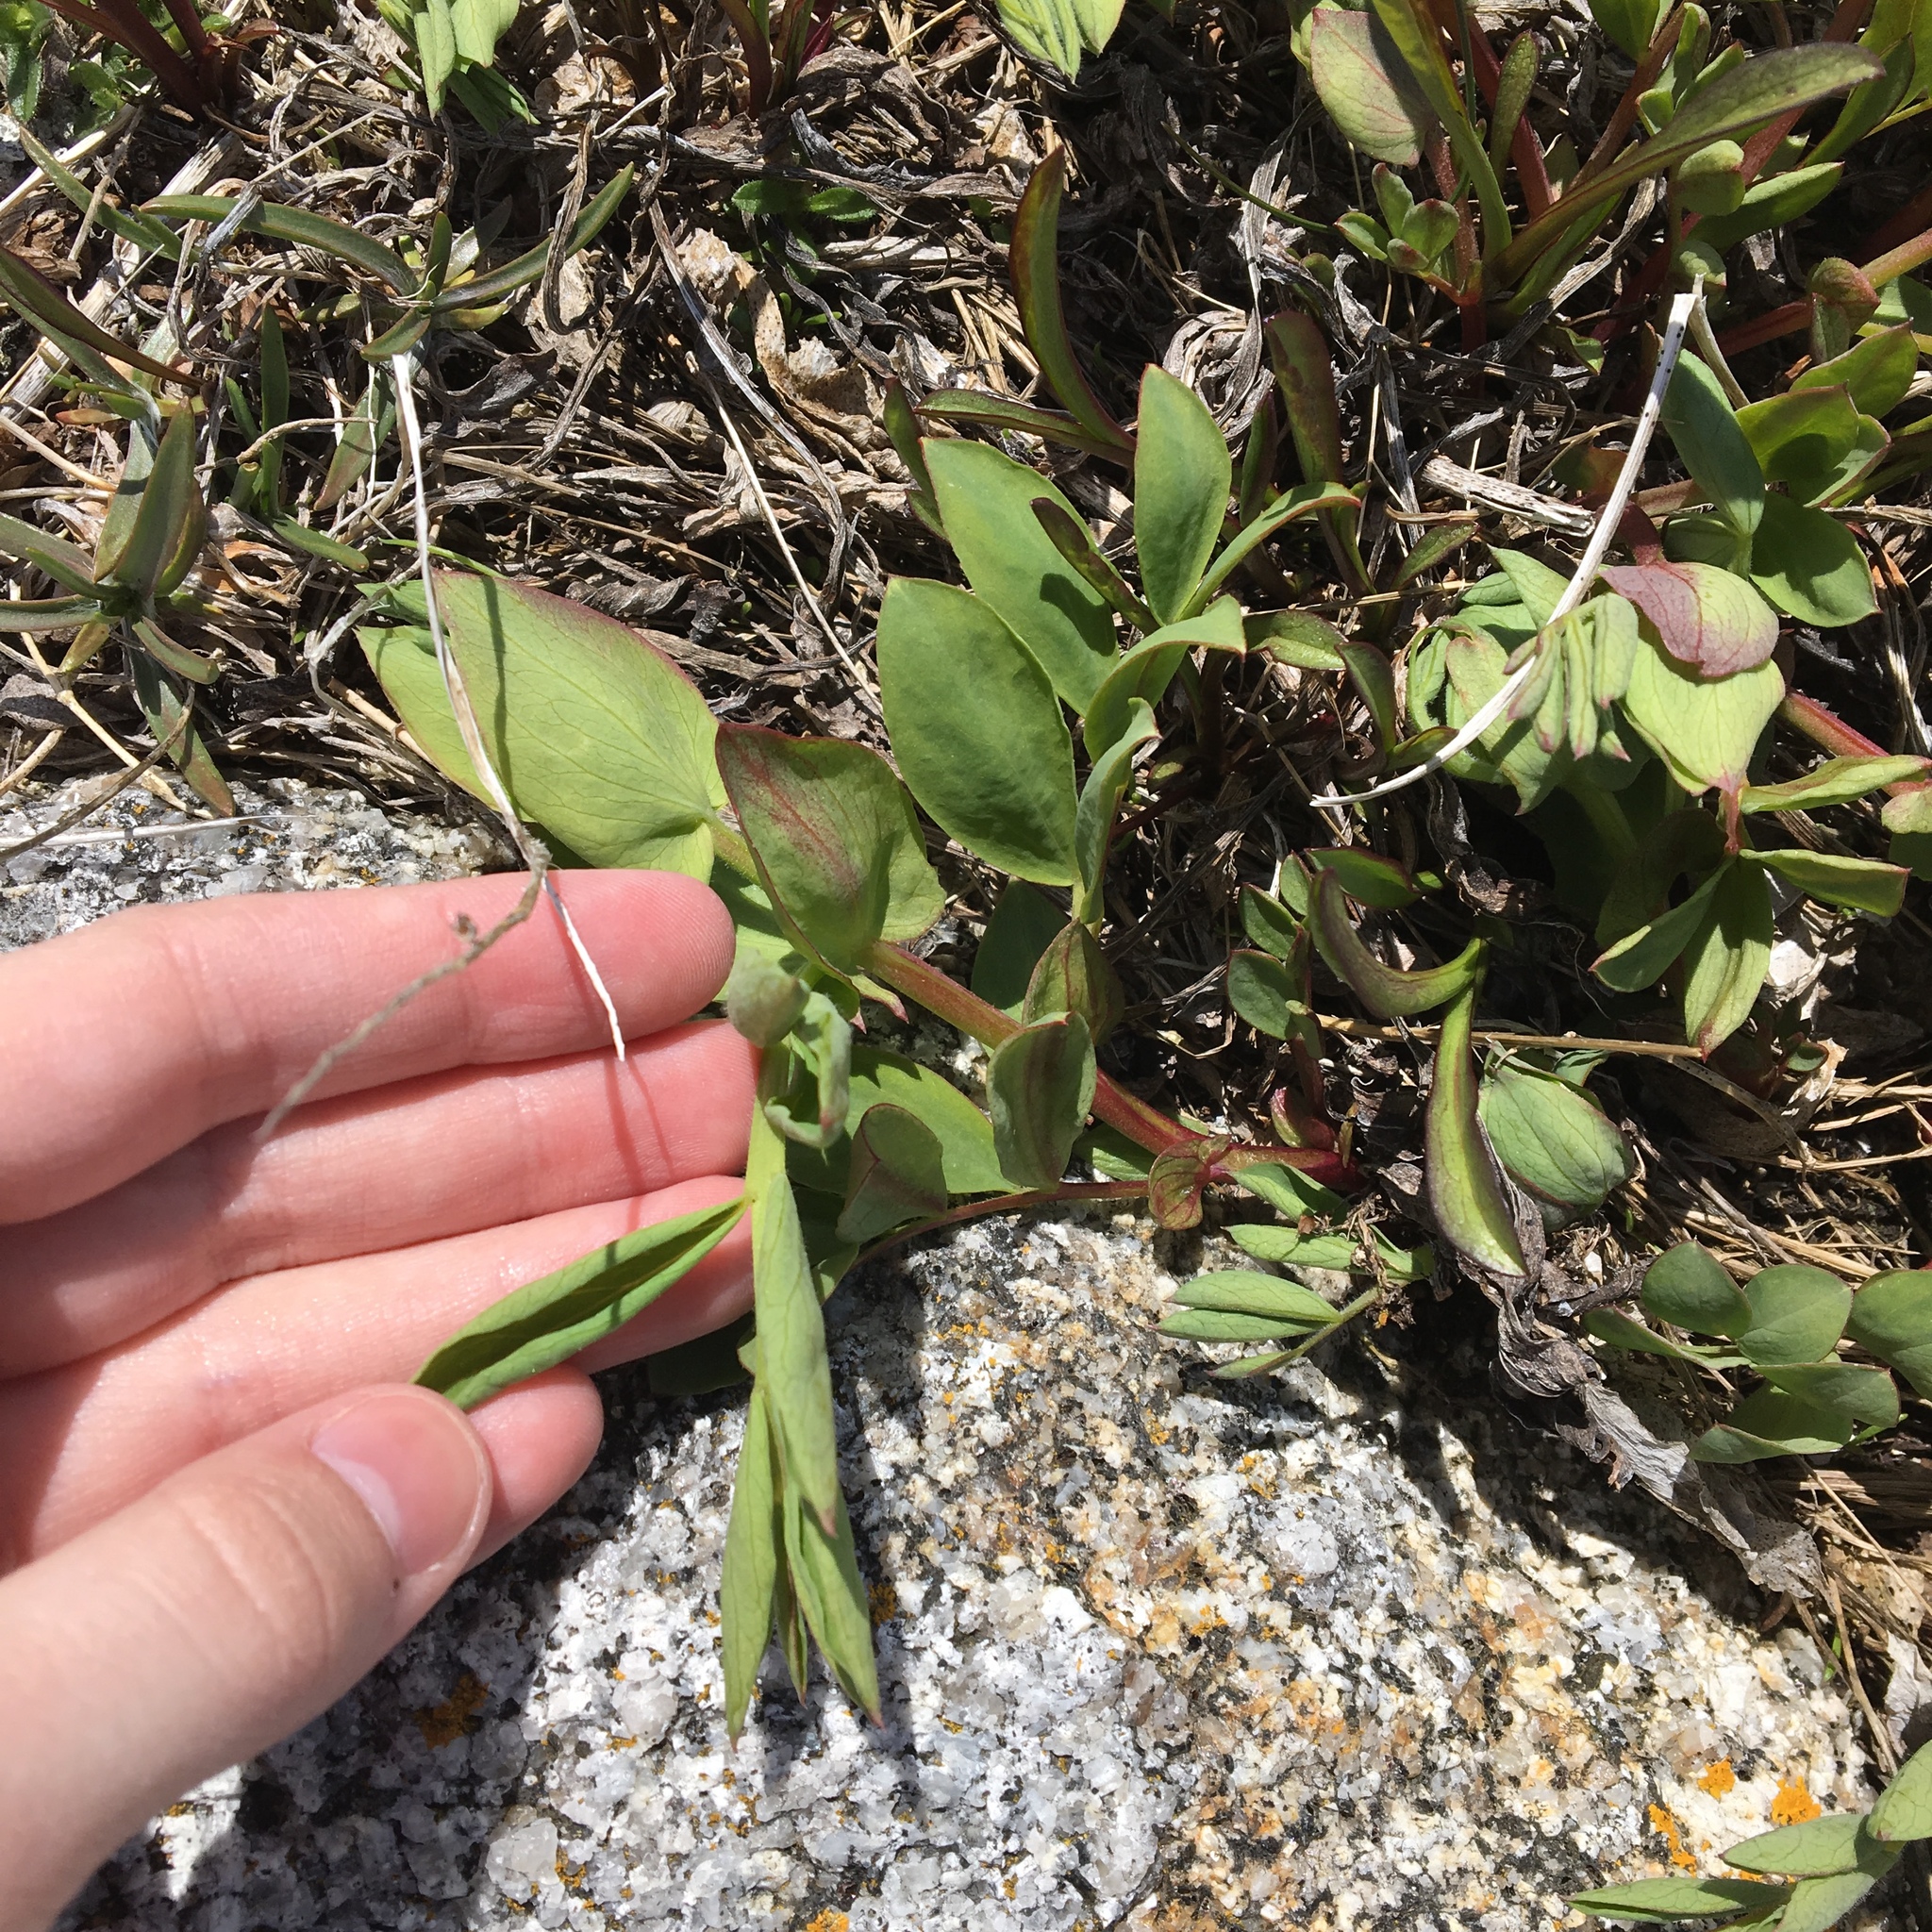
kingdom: Plantae
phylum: Tracheophyta
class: Magnoliopsida
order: Fabales
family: Fabaceae
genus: Lathyrus
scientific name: Lathyrus japonicus
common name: Sea pea
